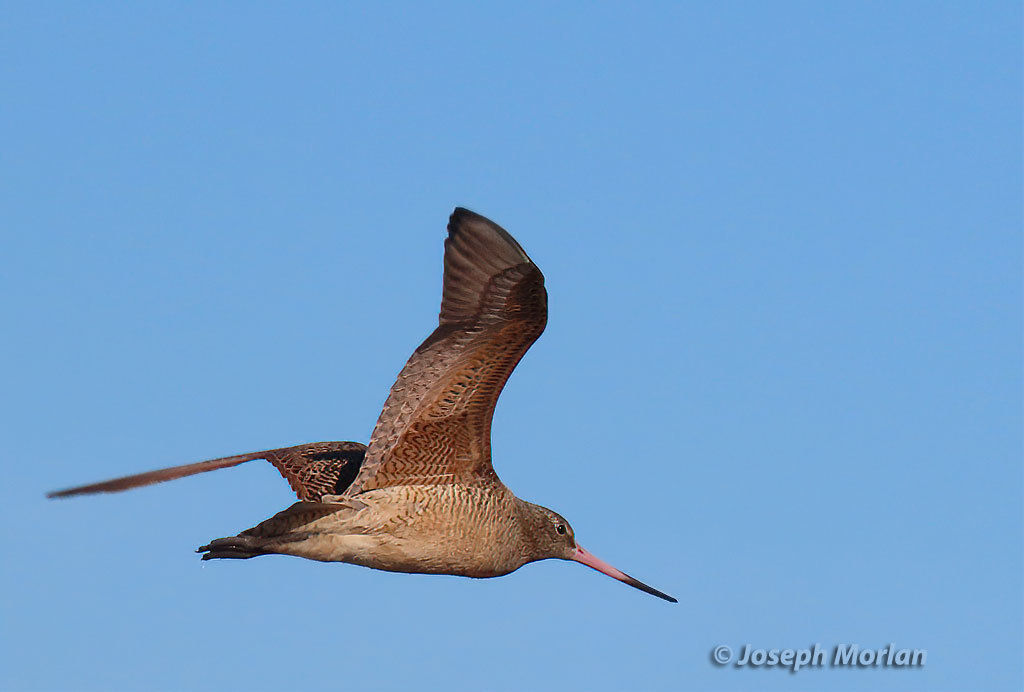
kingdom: Animalia
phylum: Chordata
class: Aves
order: Charadriiformes
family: Scolopacidae
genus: Limosa
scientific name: Limosa fedoa
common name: Marbled godwit
